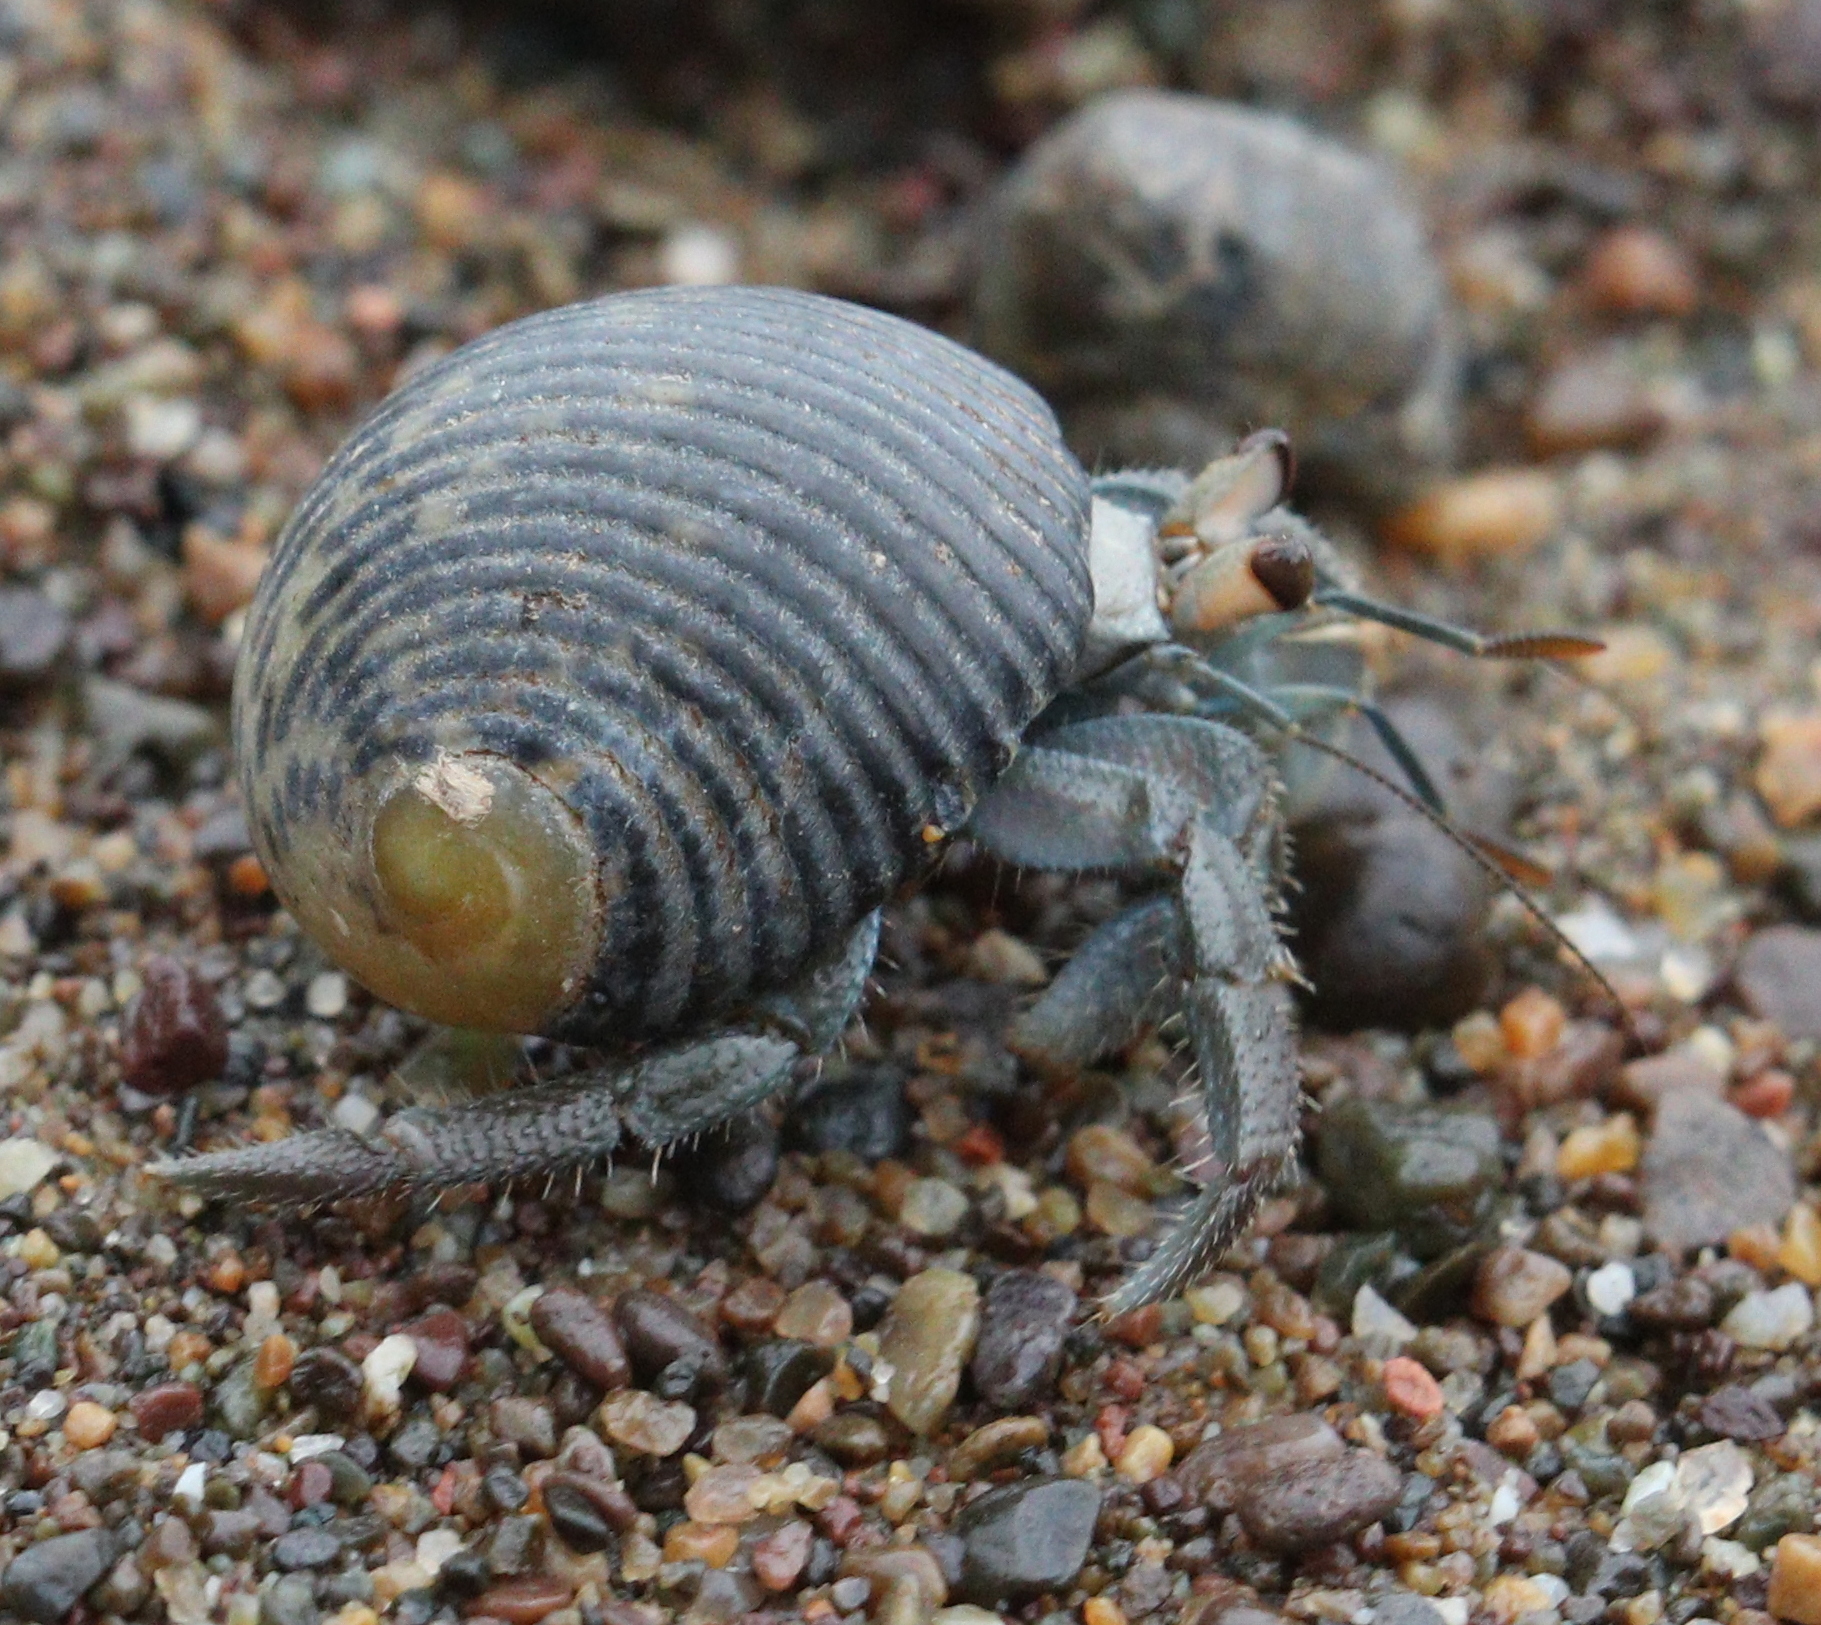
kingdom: Animalia
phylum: Arthropoda
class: Malacostraca
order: Decapoda
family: Coenobitidae
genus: Coenobita
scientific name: Coenobita compressus
